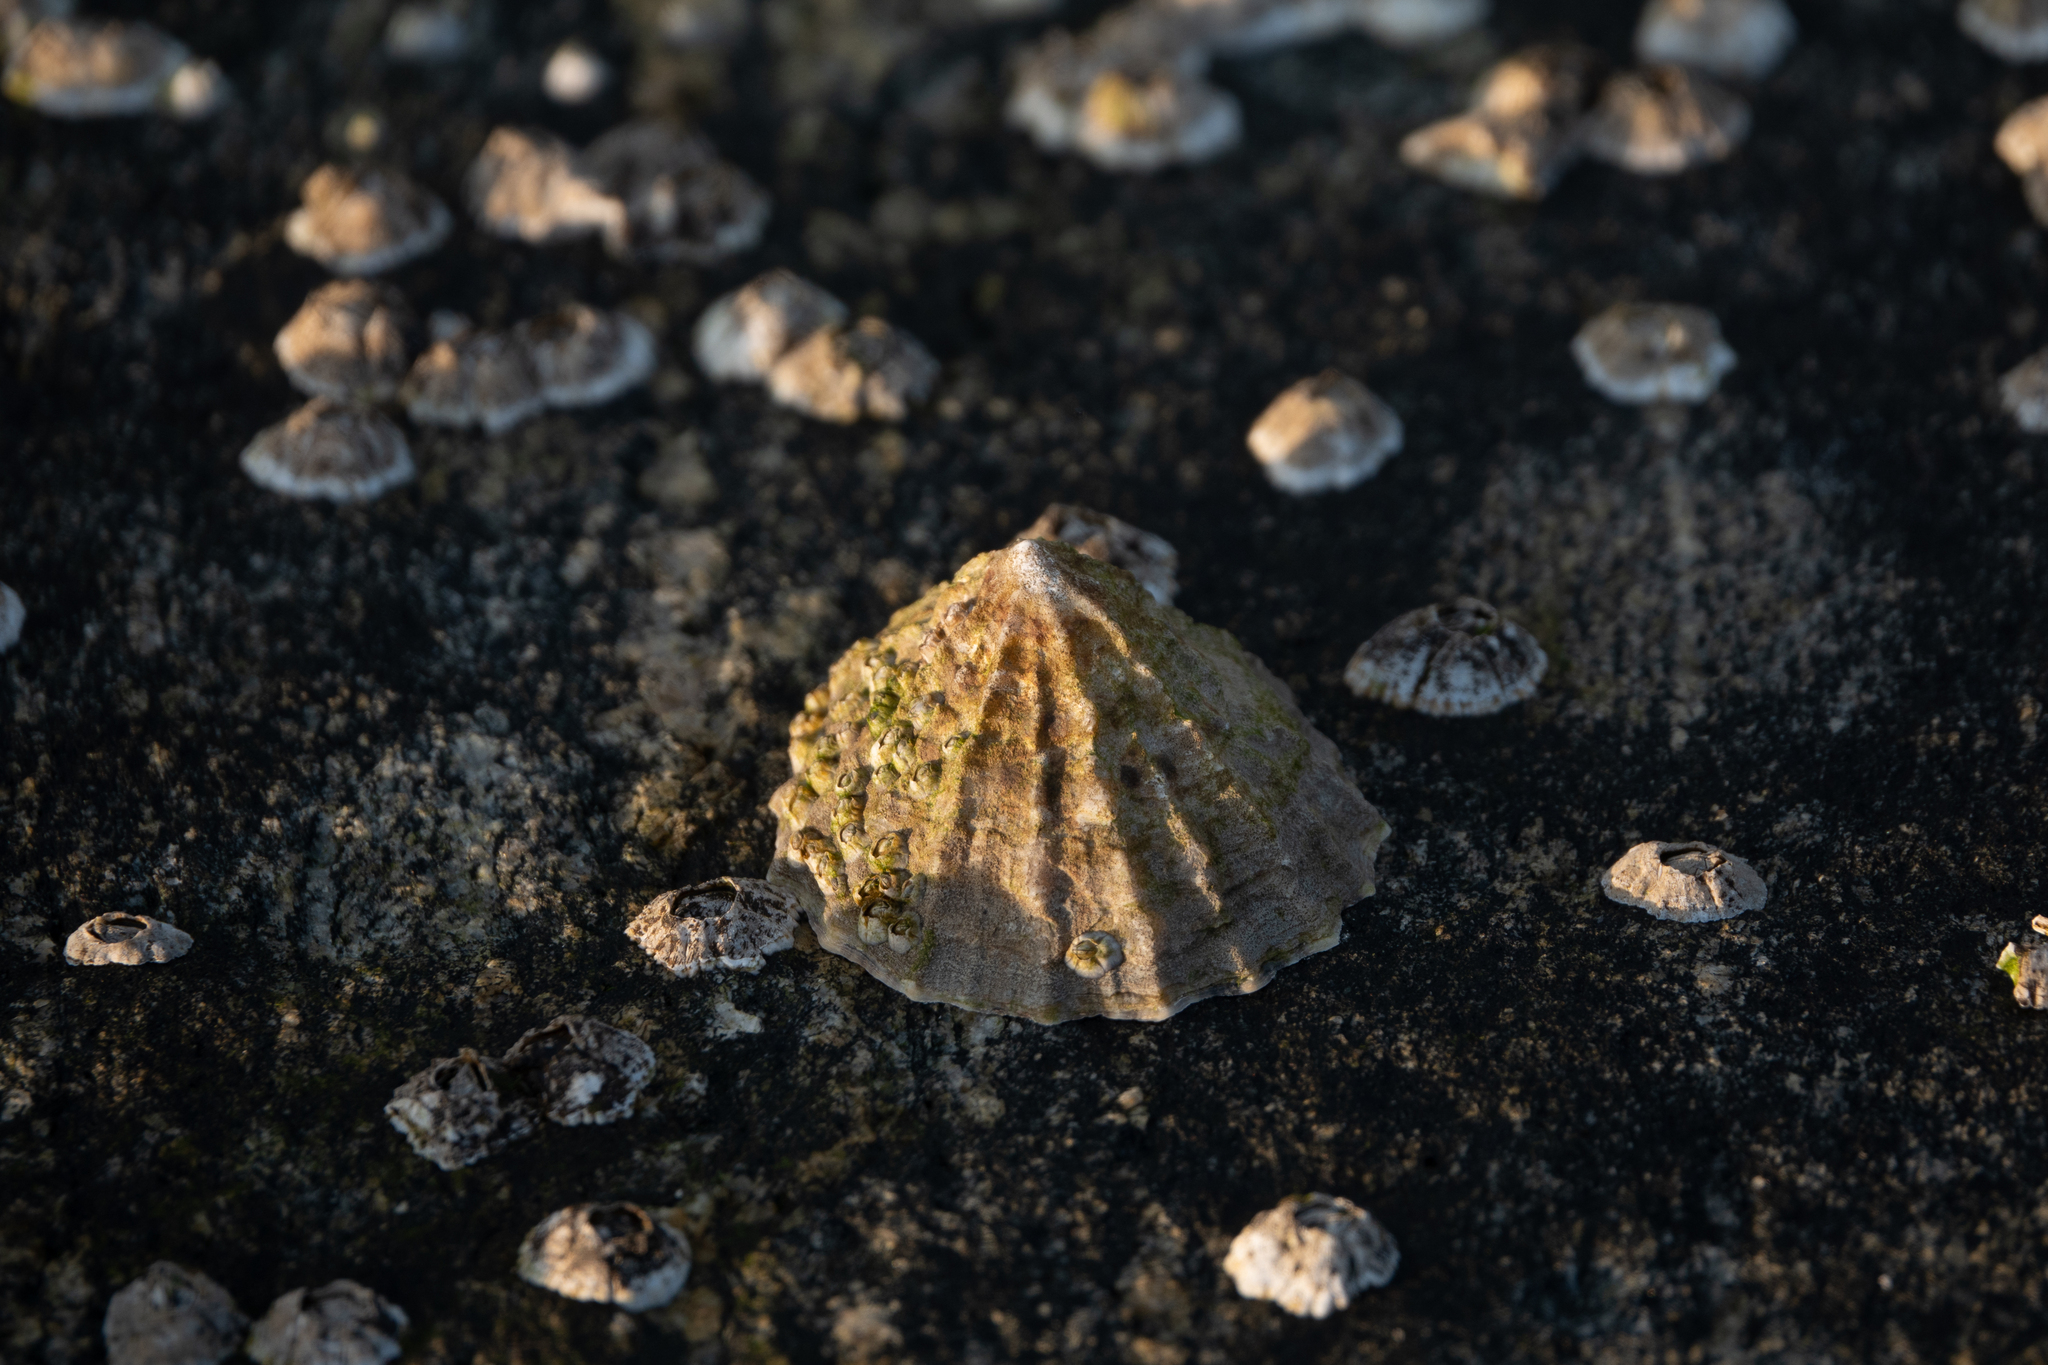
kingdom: Animalia
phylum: Mollusca
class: Gastropoda
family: Patellidae
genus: Patella
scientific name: Patella vulgata
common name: Common limpet
